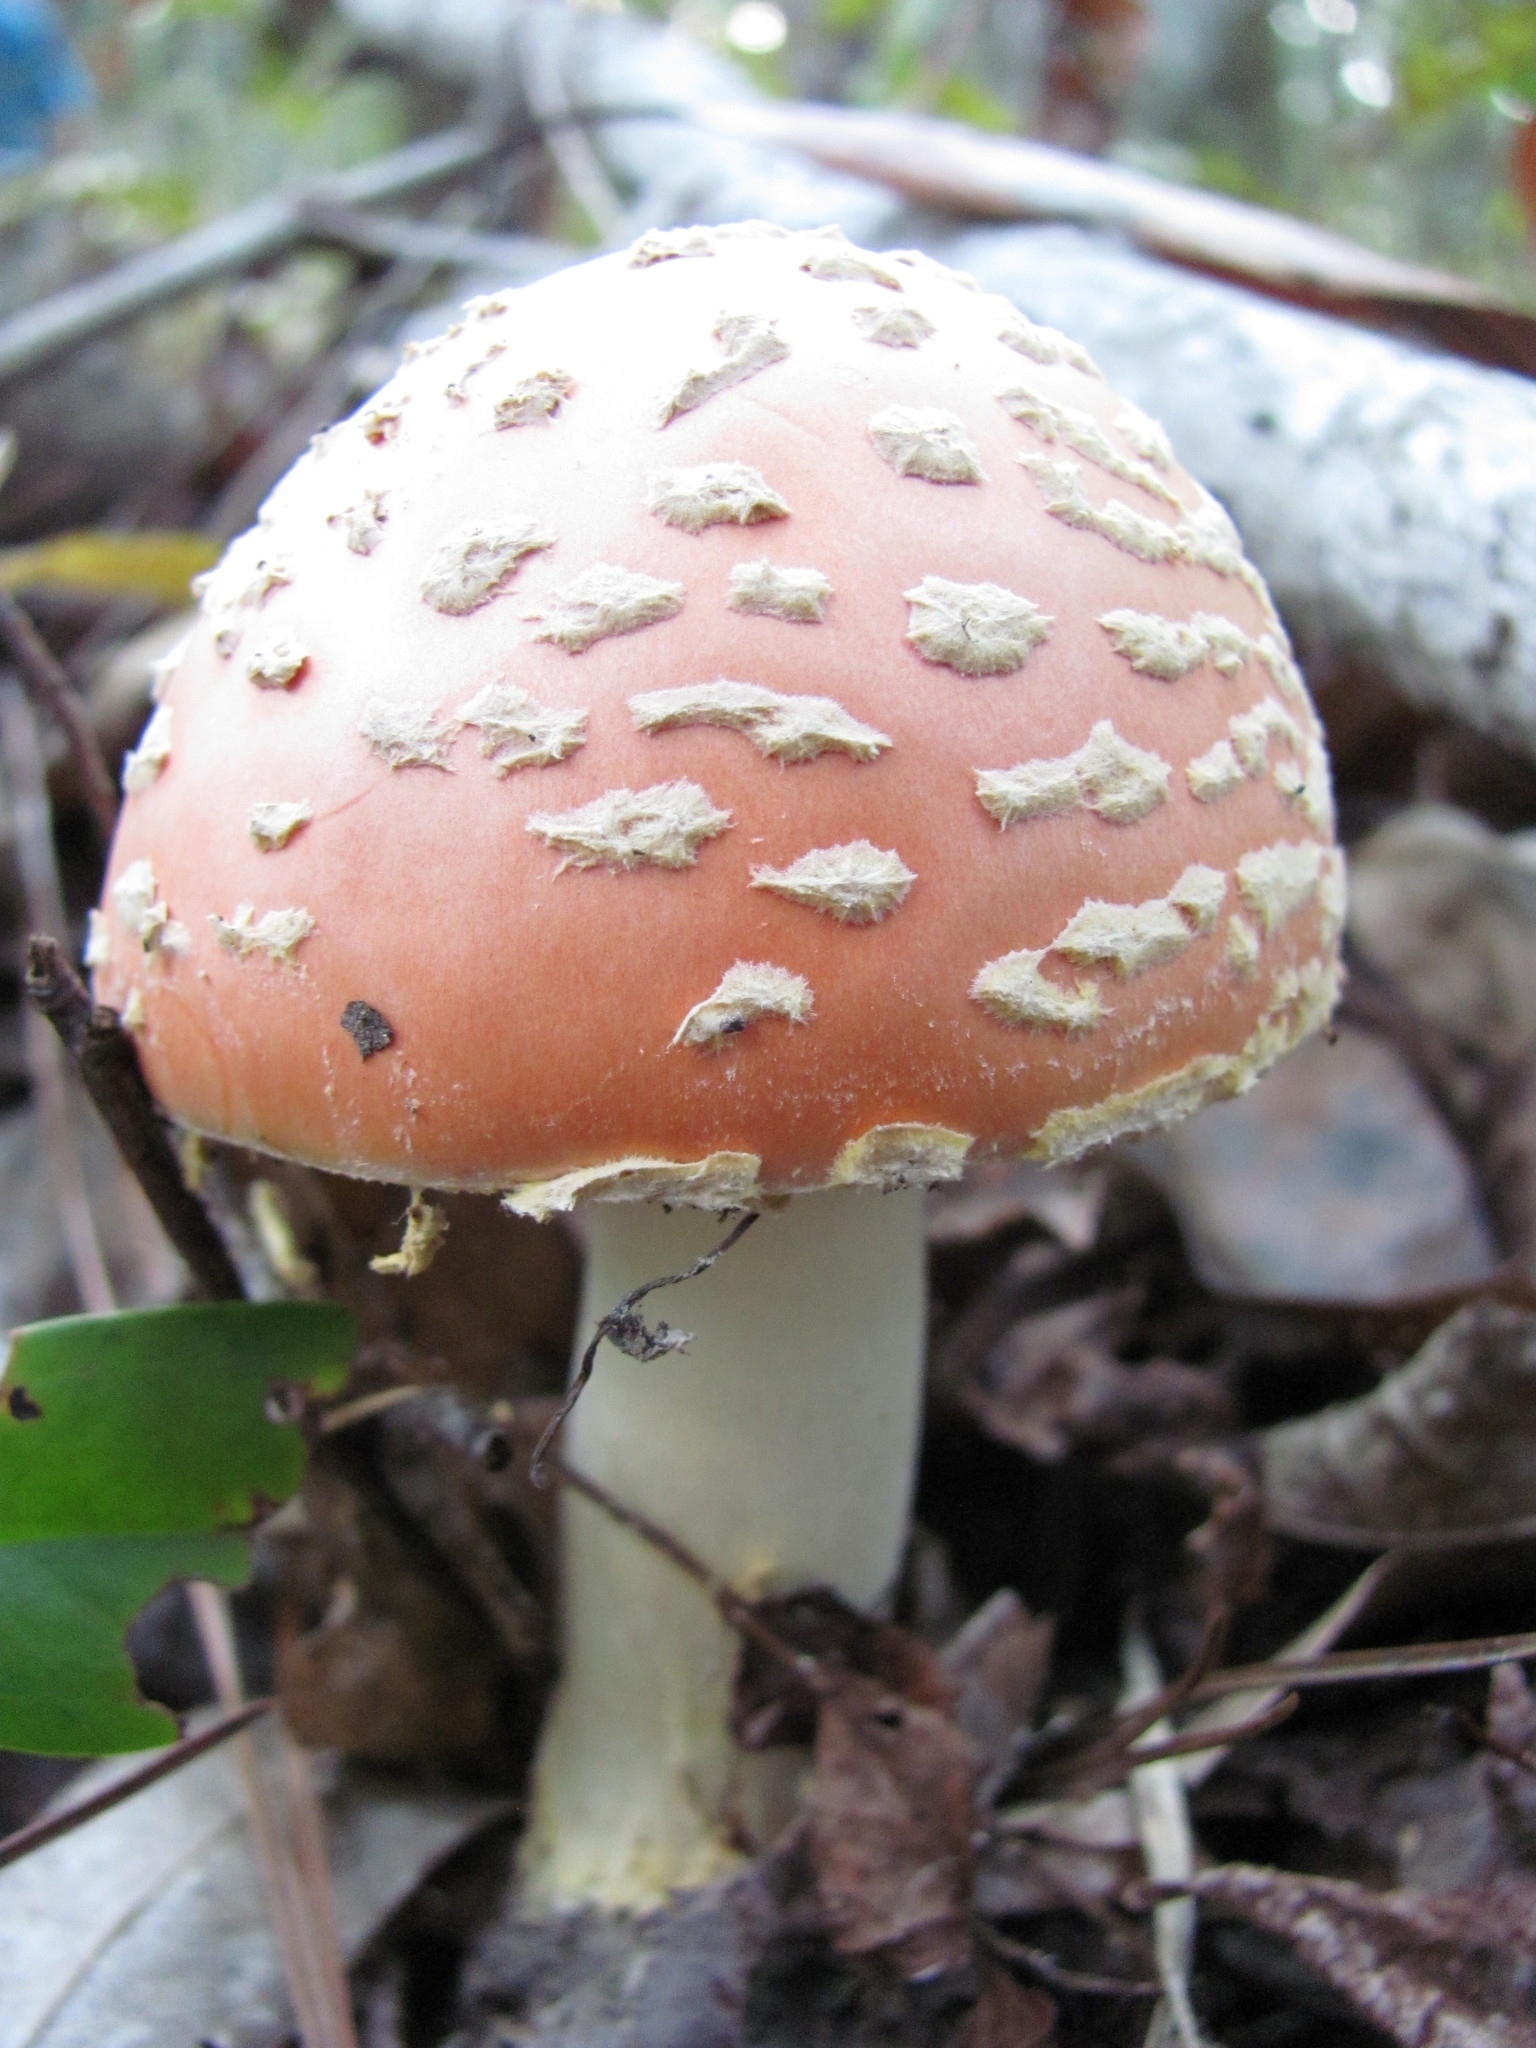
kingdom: Fungi
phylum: Basidiomycota
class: Agaricomycetes
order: Agaricales
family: Amanitaceae
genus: Amanita
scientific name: Amanita persicina
